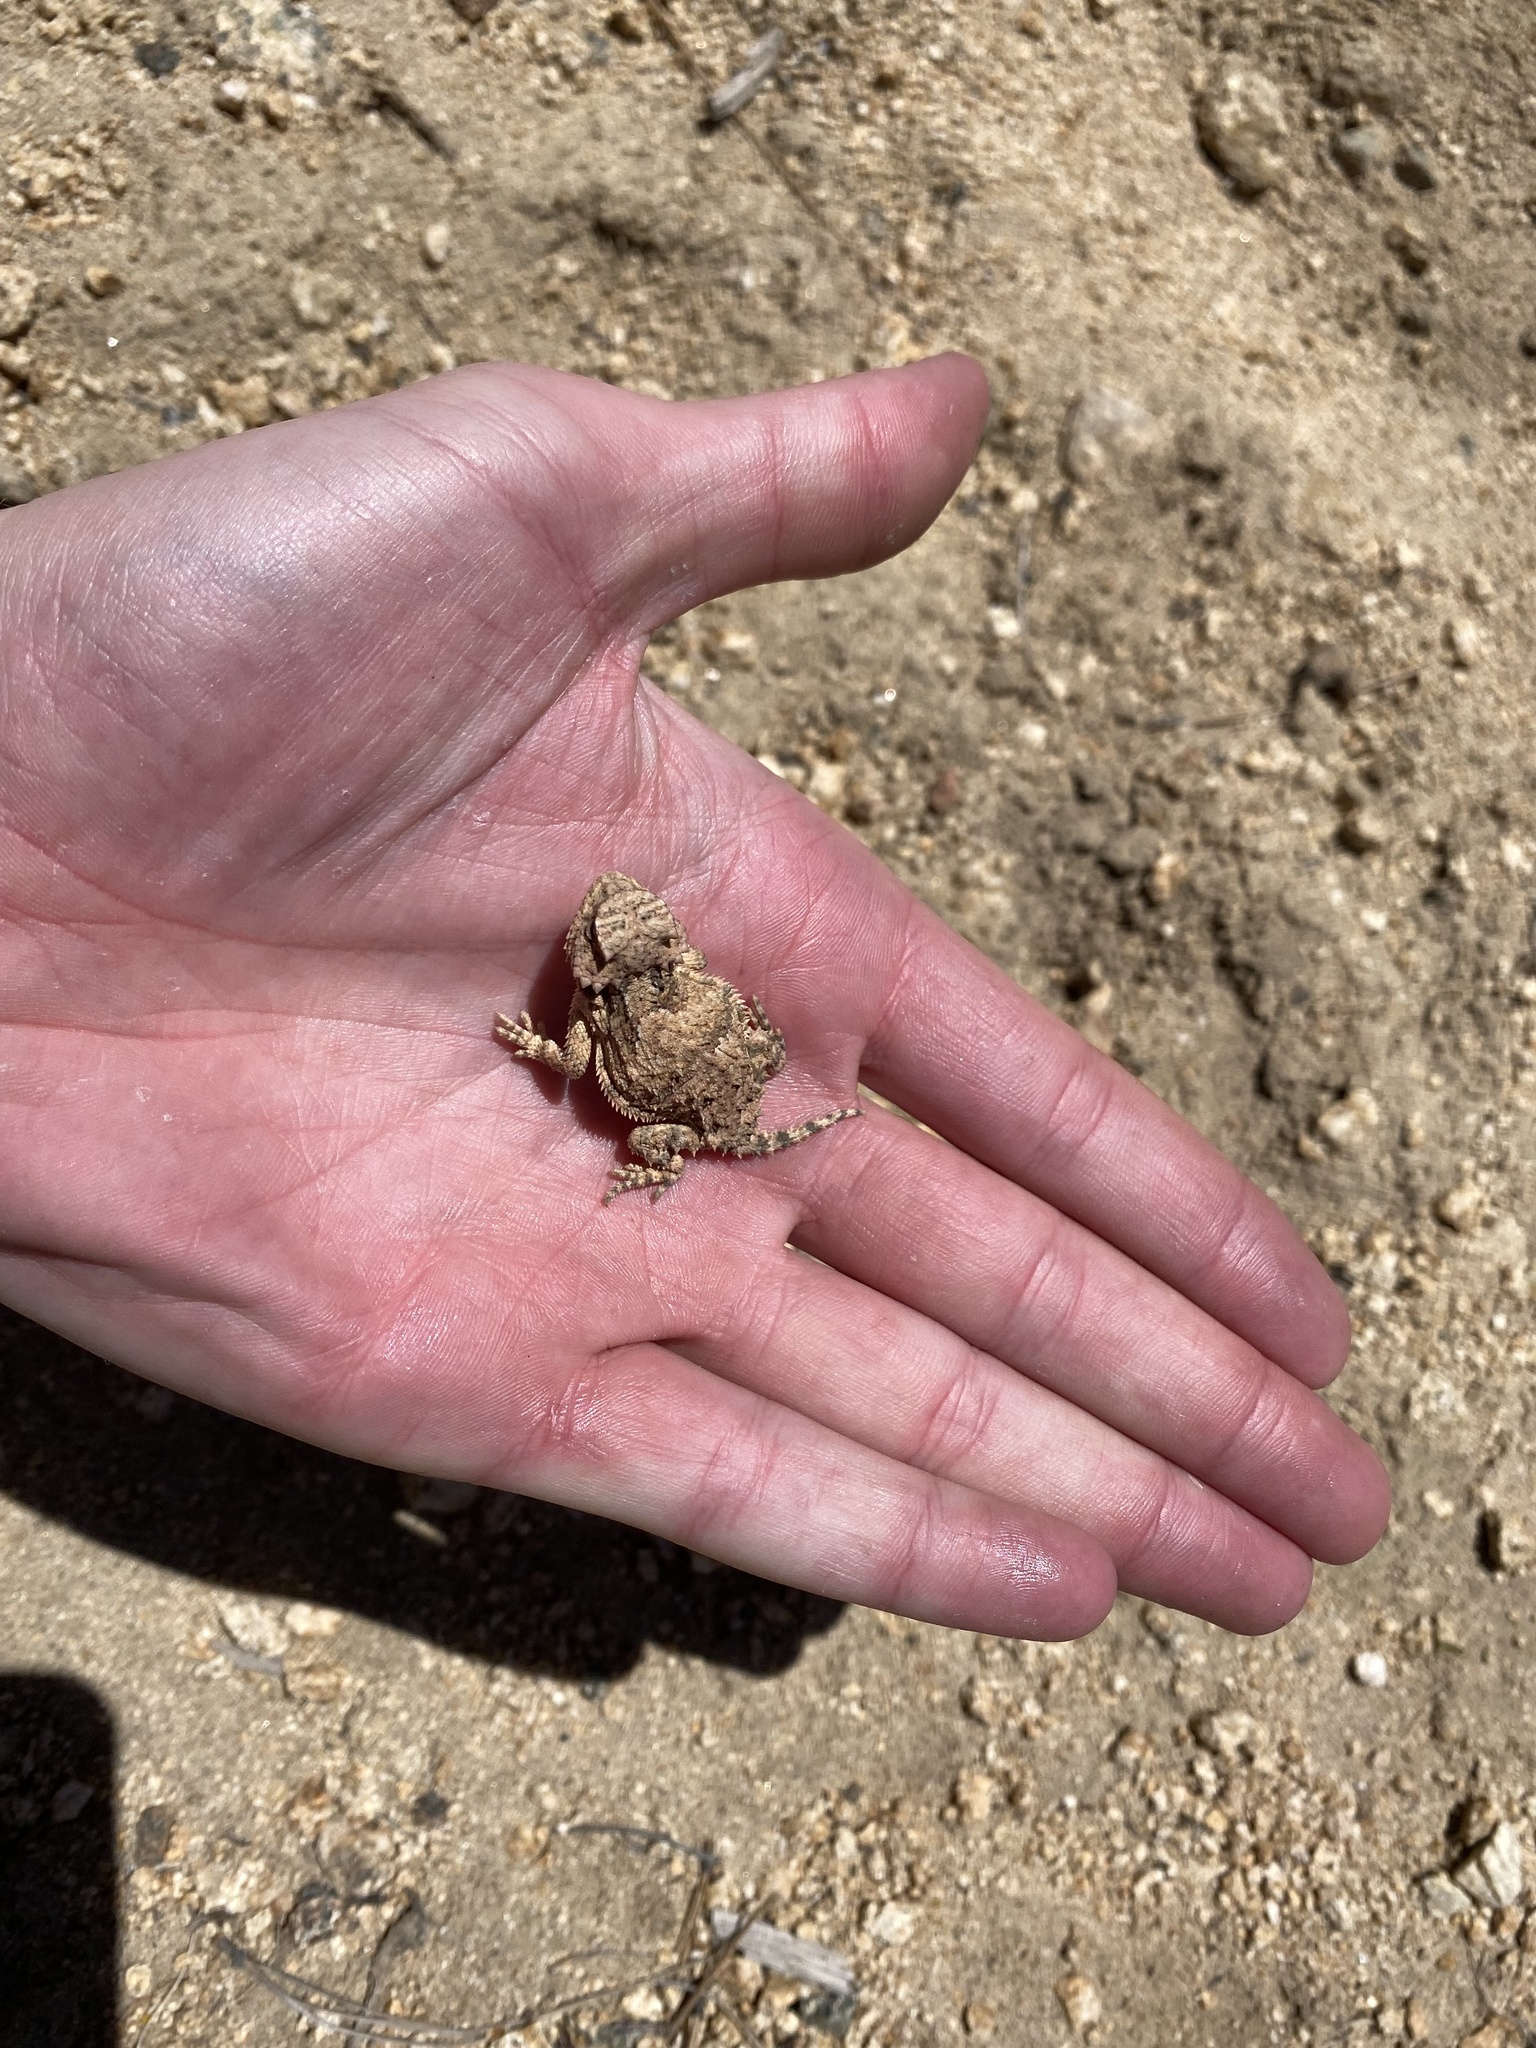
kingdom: Animalia
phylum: Chordata
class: Squamata
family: Phrynosomatidae
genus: Phrynosoma
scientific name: Phrynosoma hernandesi
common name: Greater short-horned lizard
